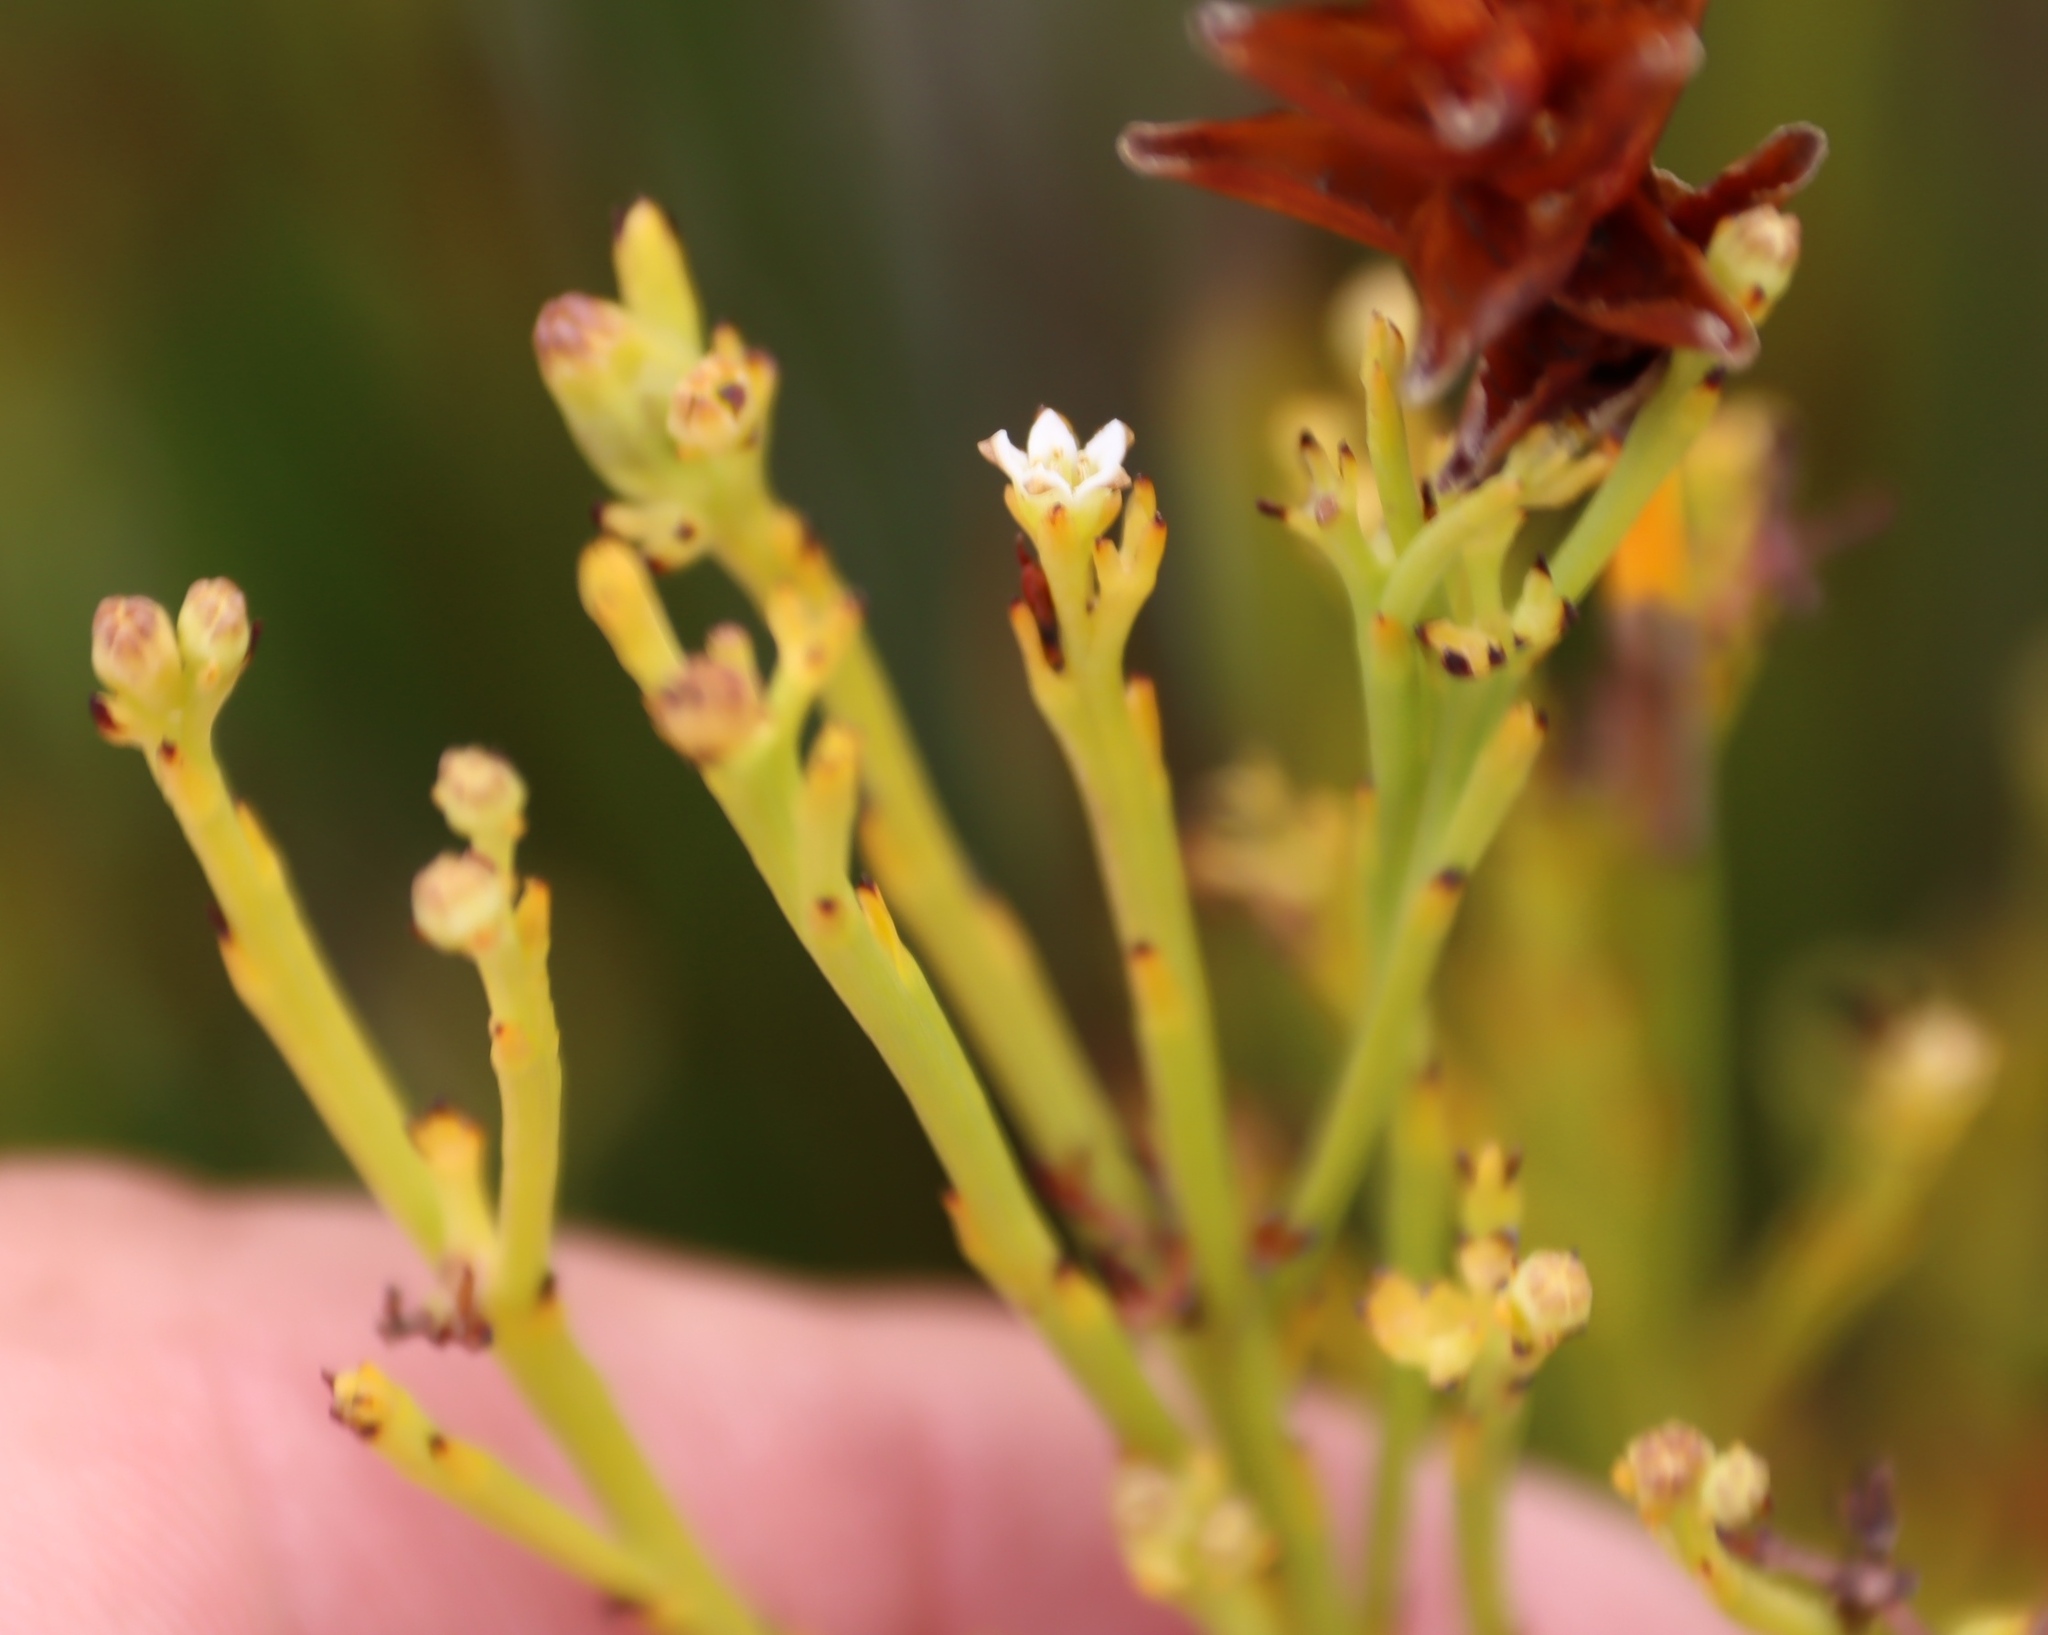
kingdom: Plantae
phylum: Tracheophyta
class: Magnoliopsida
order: Santalales
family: Thesiaceae
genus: Thesium
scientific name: Thesium virgatum
